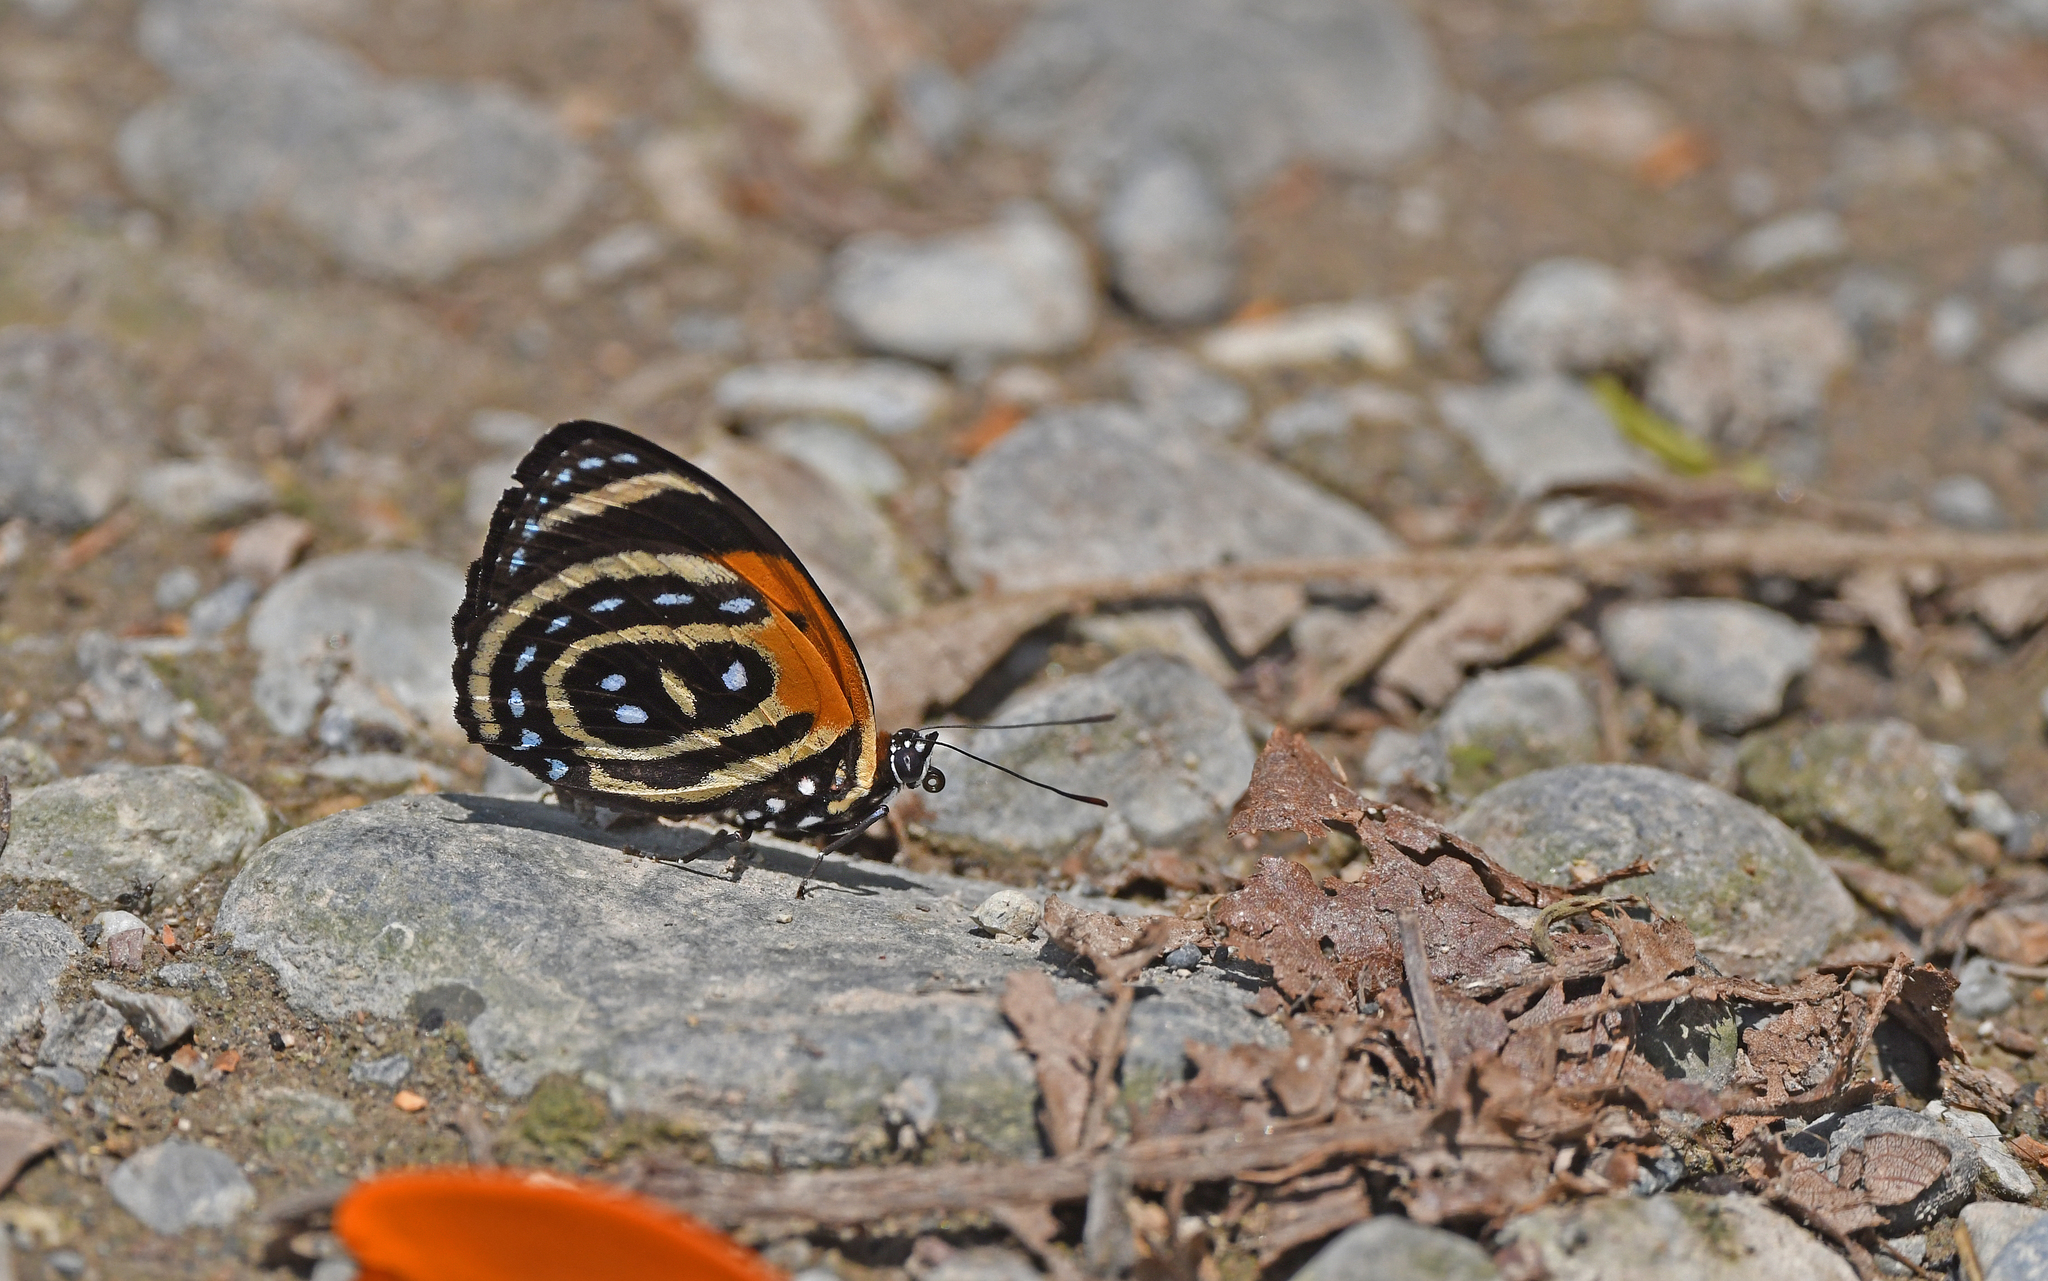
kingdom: Animalia
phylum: Arthropoda
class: Insecta
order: Lepidoptera
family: Nymphalidae
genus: Catagramma
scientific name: Catagramma cynosura
